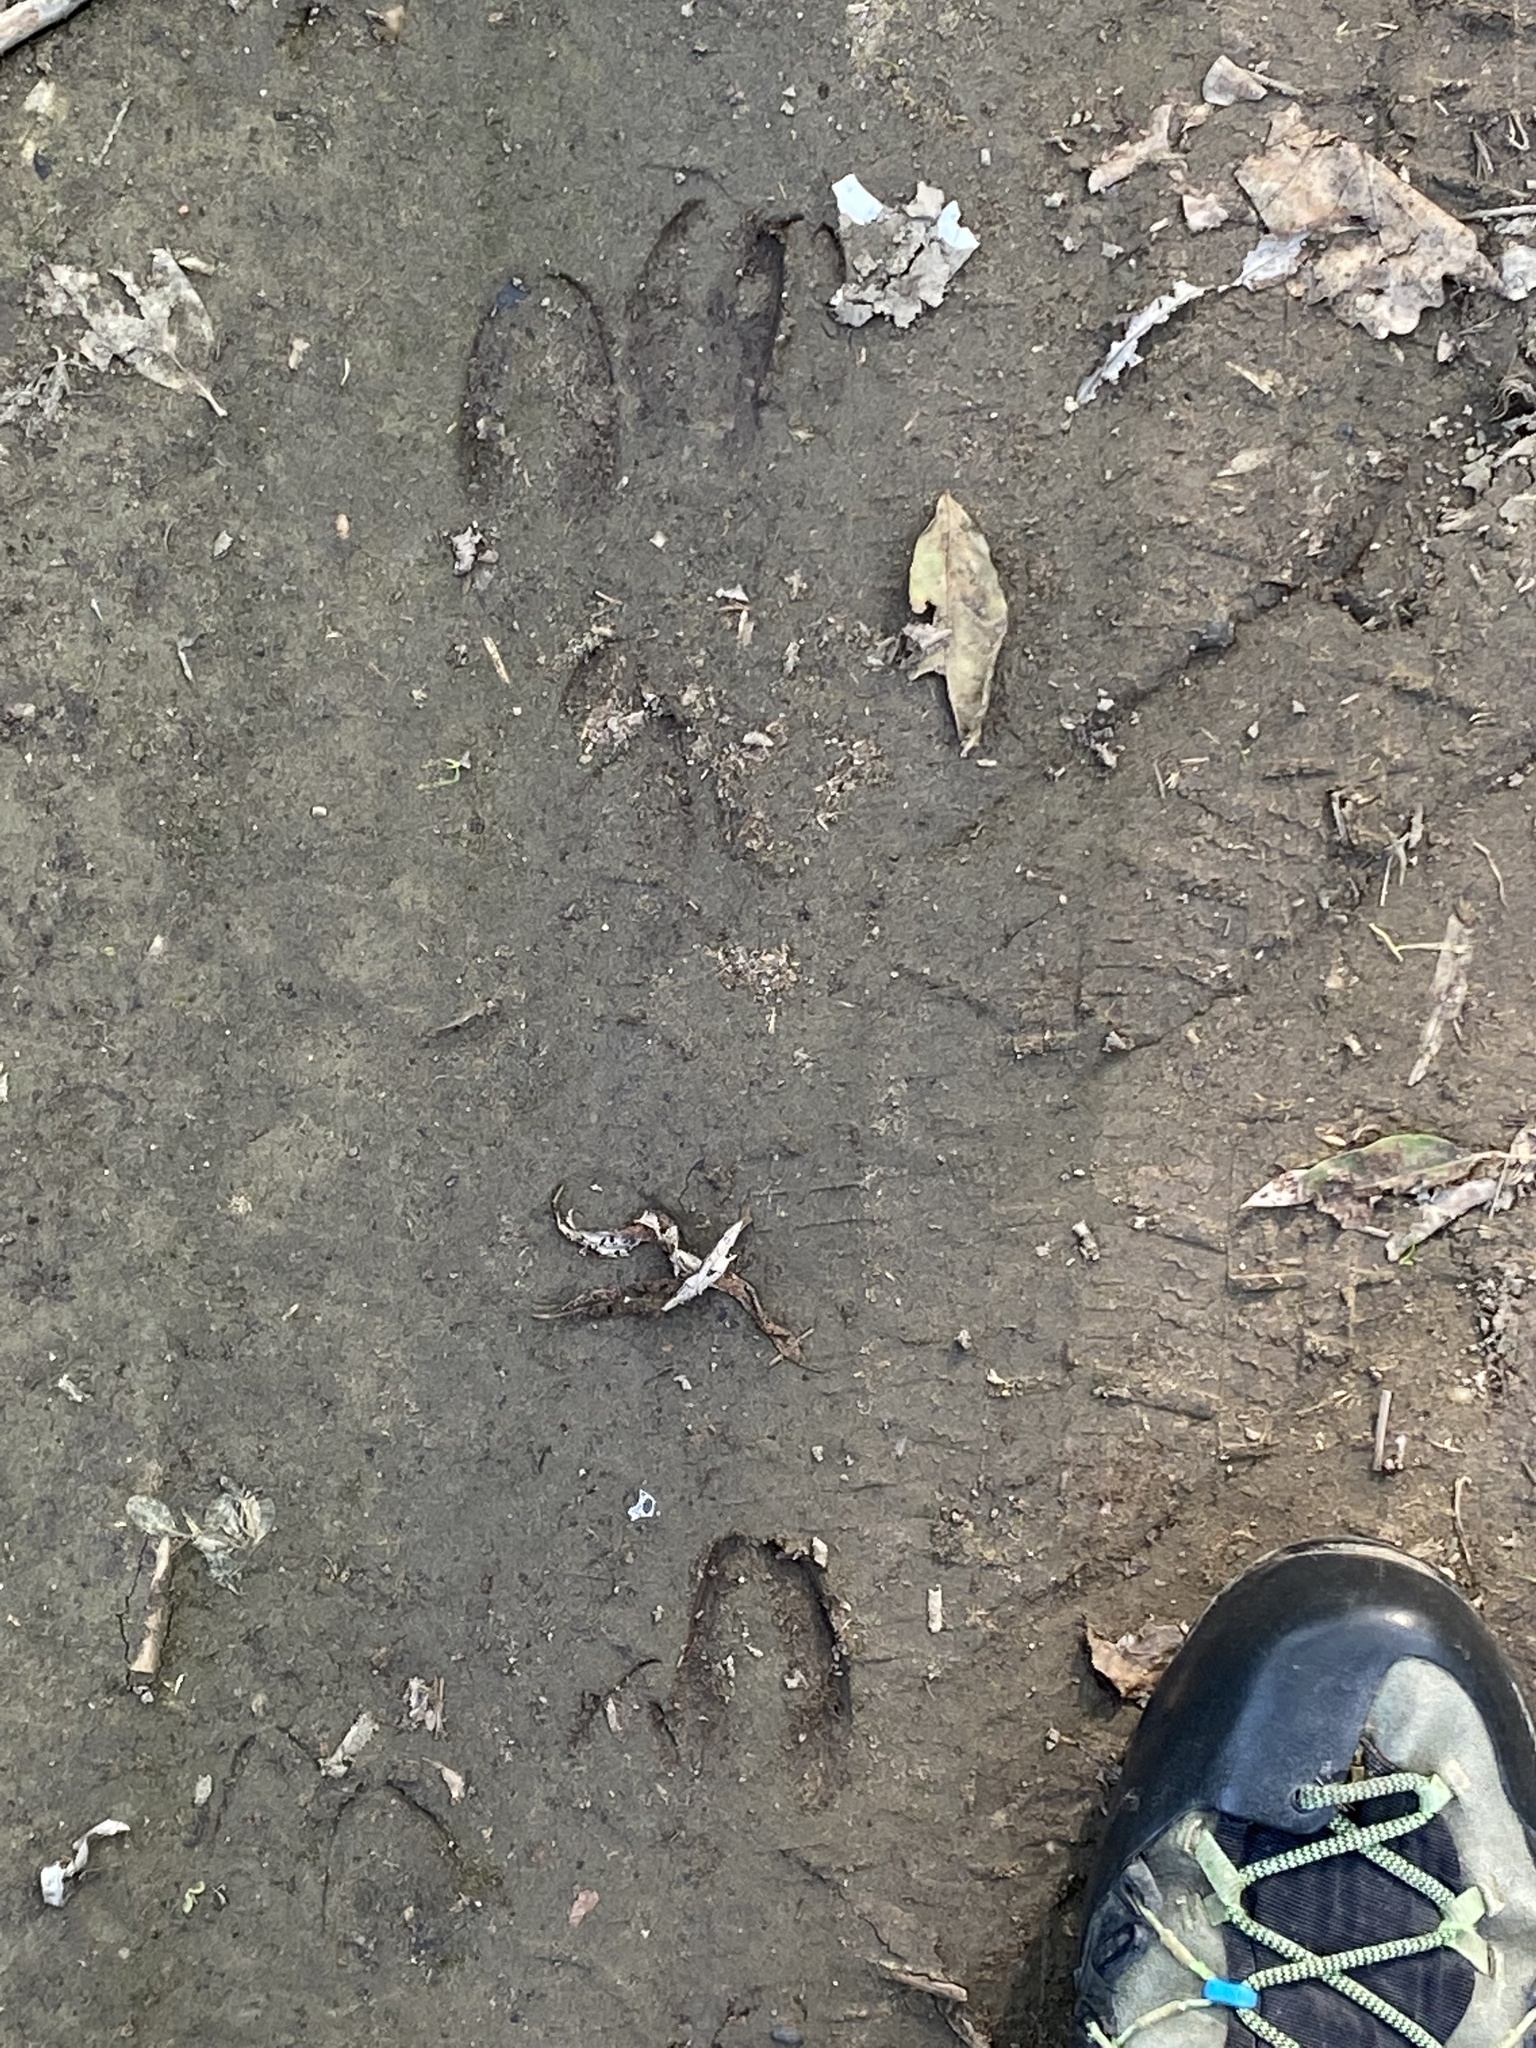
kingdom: Animalia
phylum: Chordata
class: Mammalia
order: Artiodactyla
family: Cervidae
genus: Dama
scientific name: Dama dama
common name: Fallow deer
